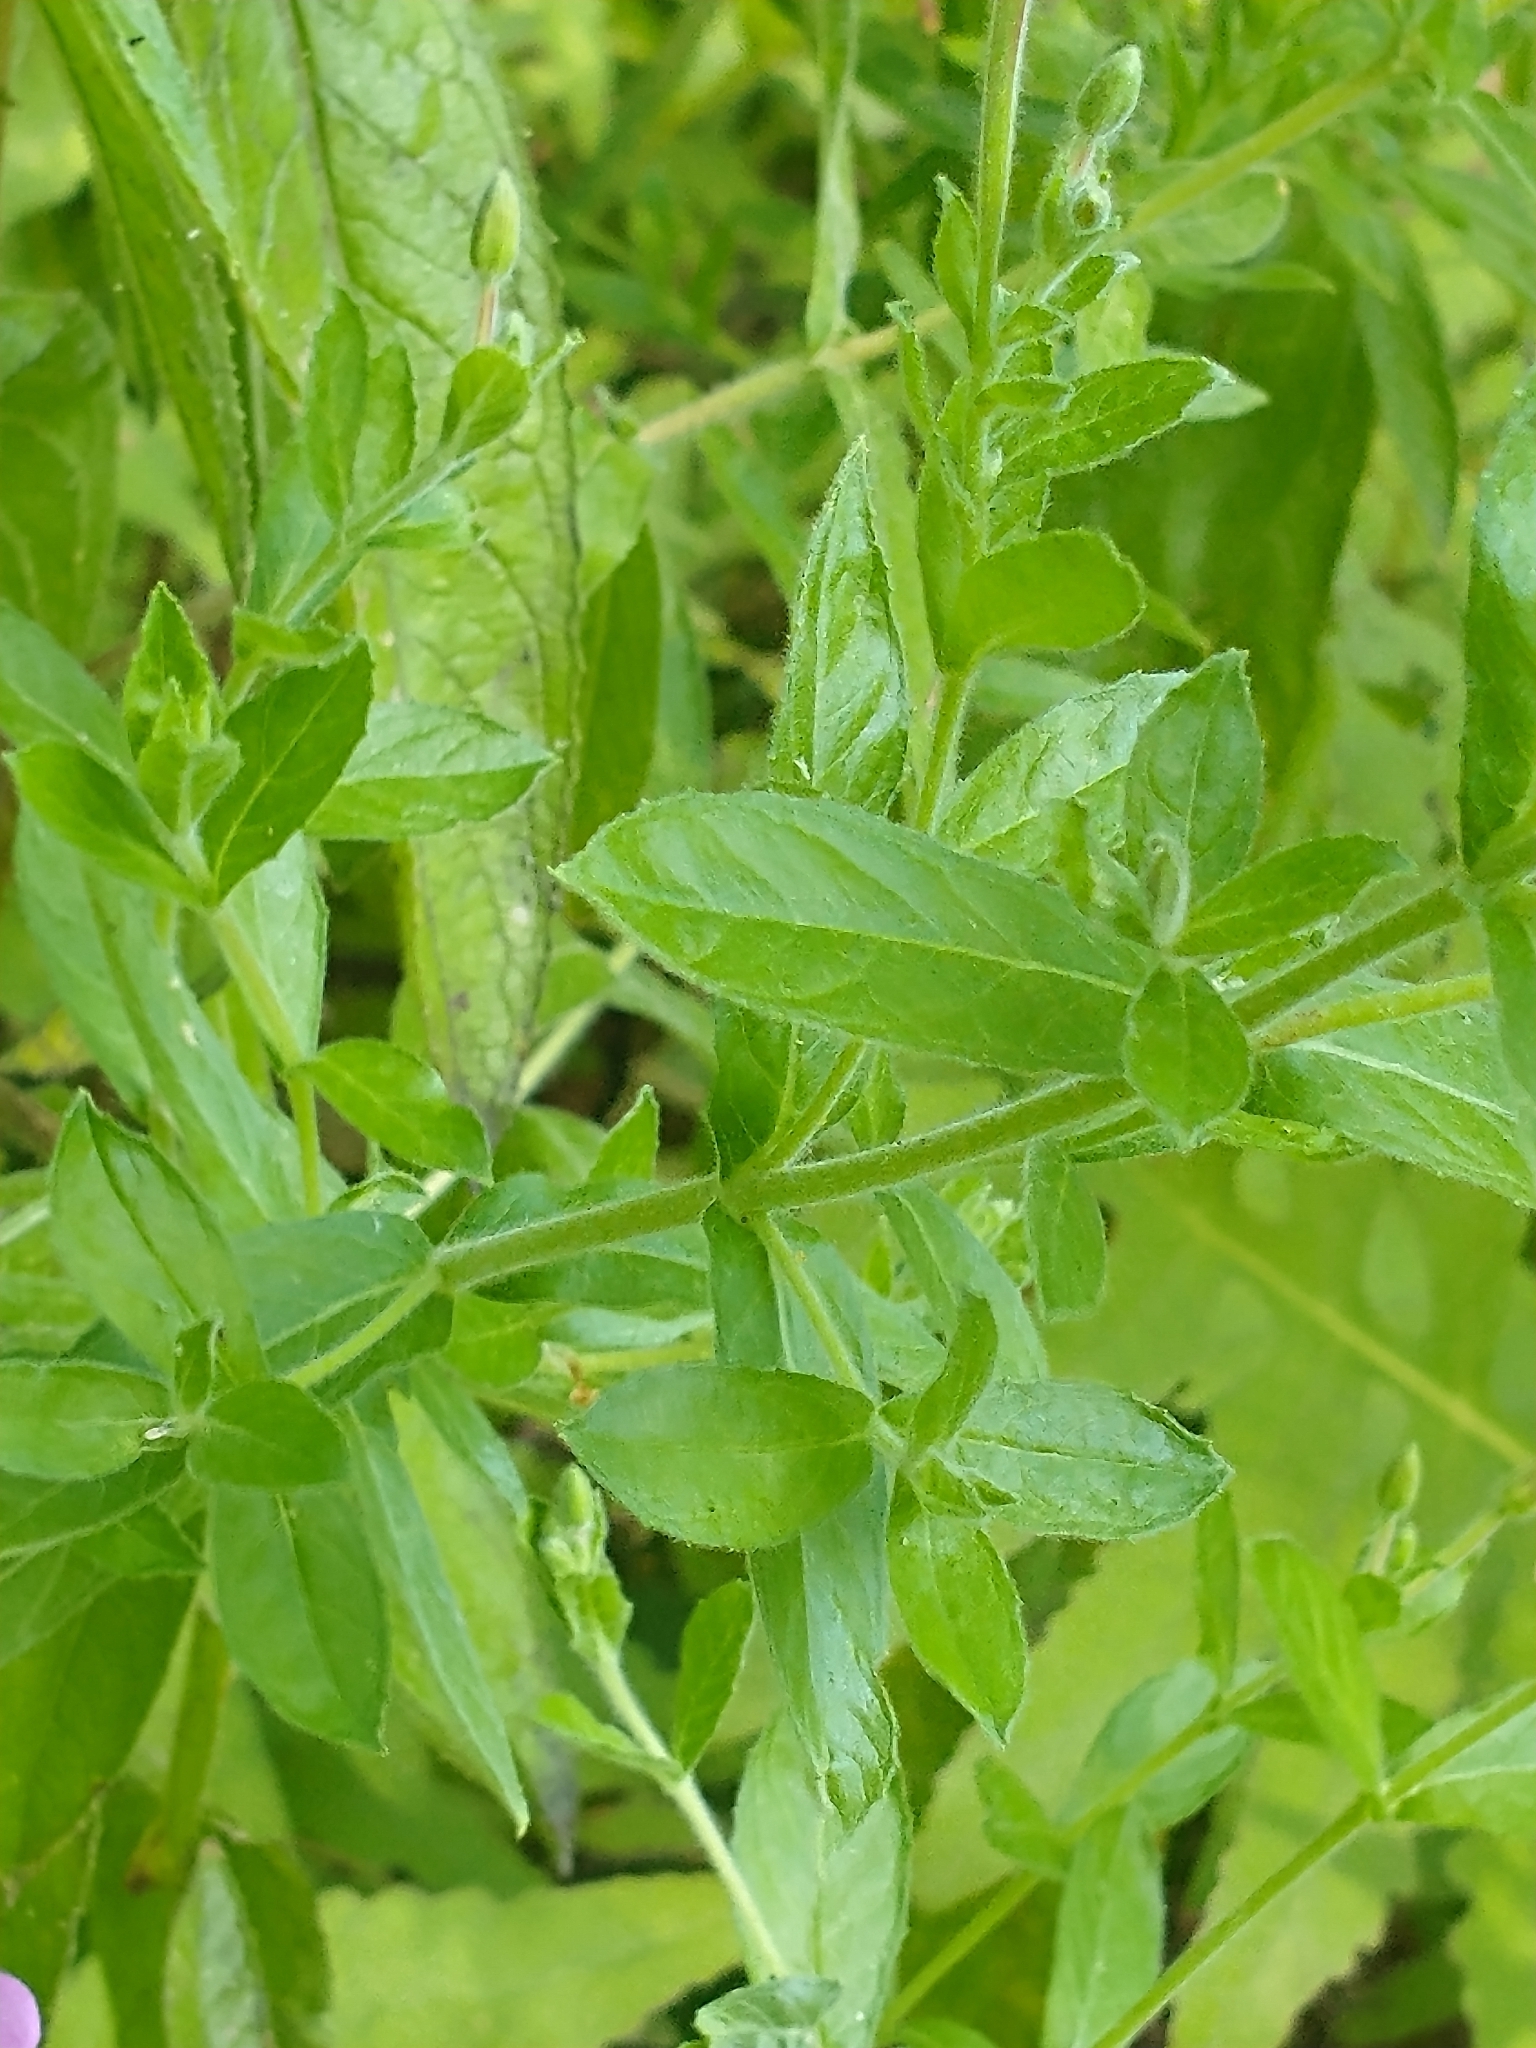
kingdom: Plantae
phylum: Tracheophyta
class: Magnoliopsida
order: Myrtales
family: Onagraceae
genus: Epilobium
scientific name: Epilobium hirsutum
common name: Great willowherb
